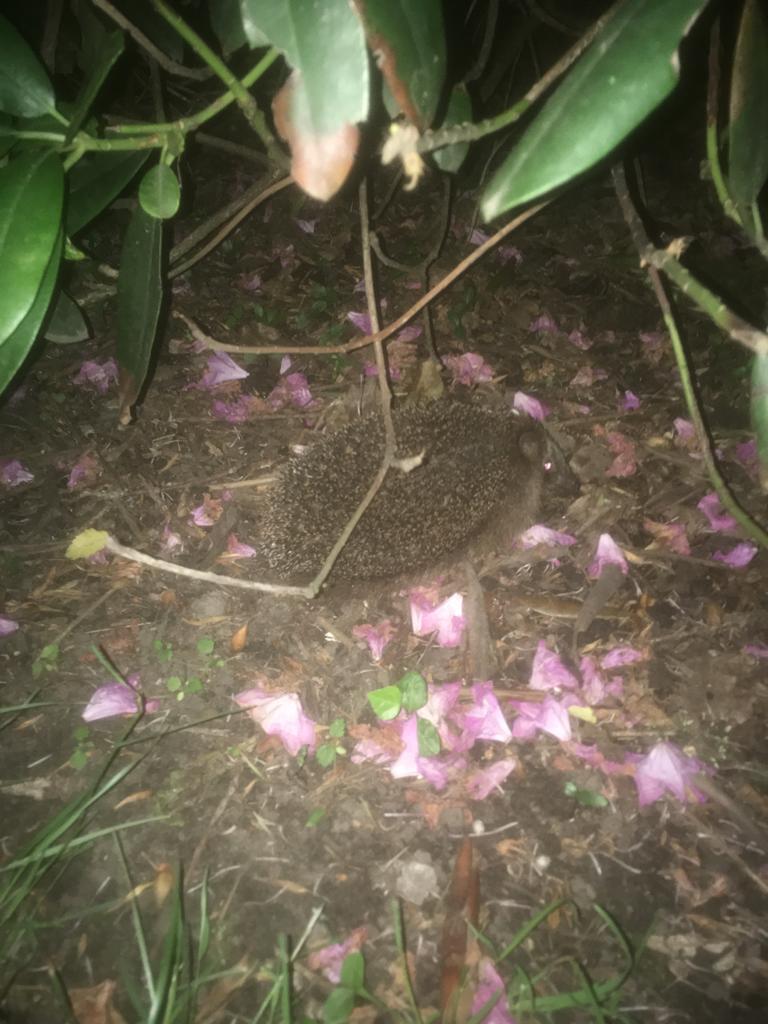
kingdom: Animalia
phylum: Chordata
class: Mammalia
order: Erinaceomorpha
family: Erinaceidae
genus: Erinaceus
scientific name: Erinaceus europaeus
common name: West european hedgehog
